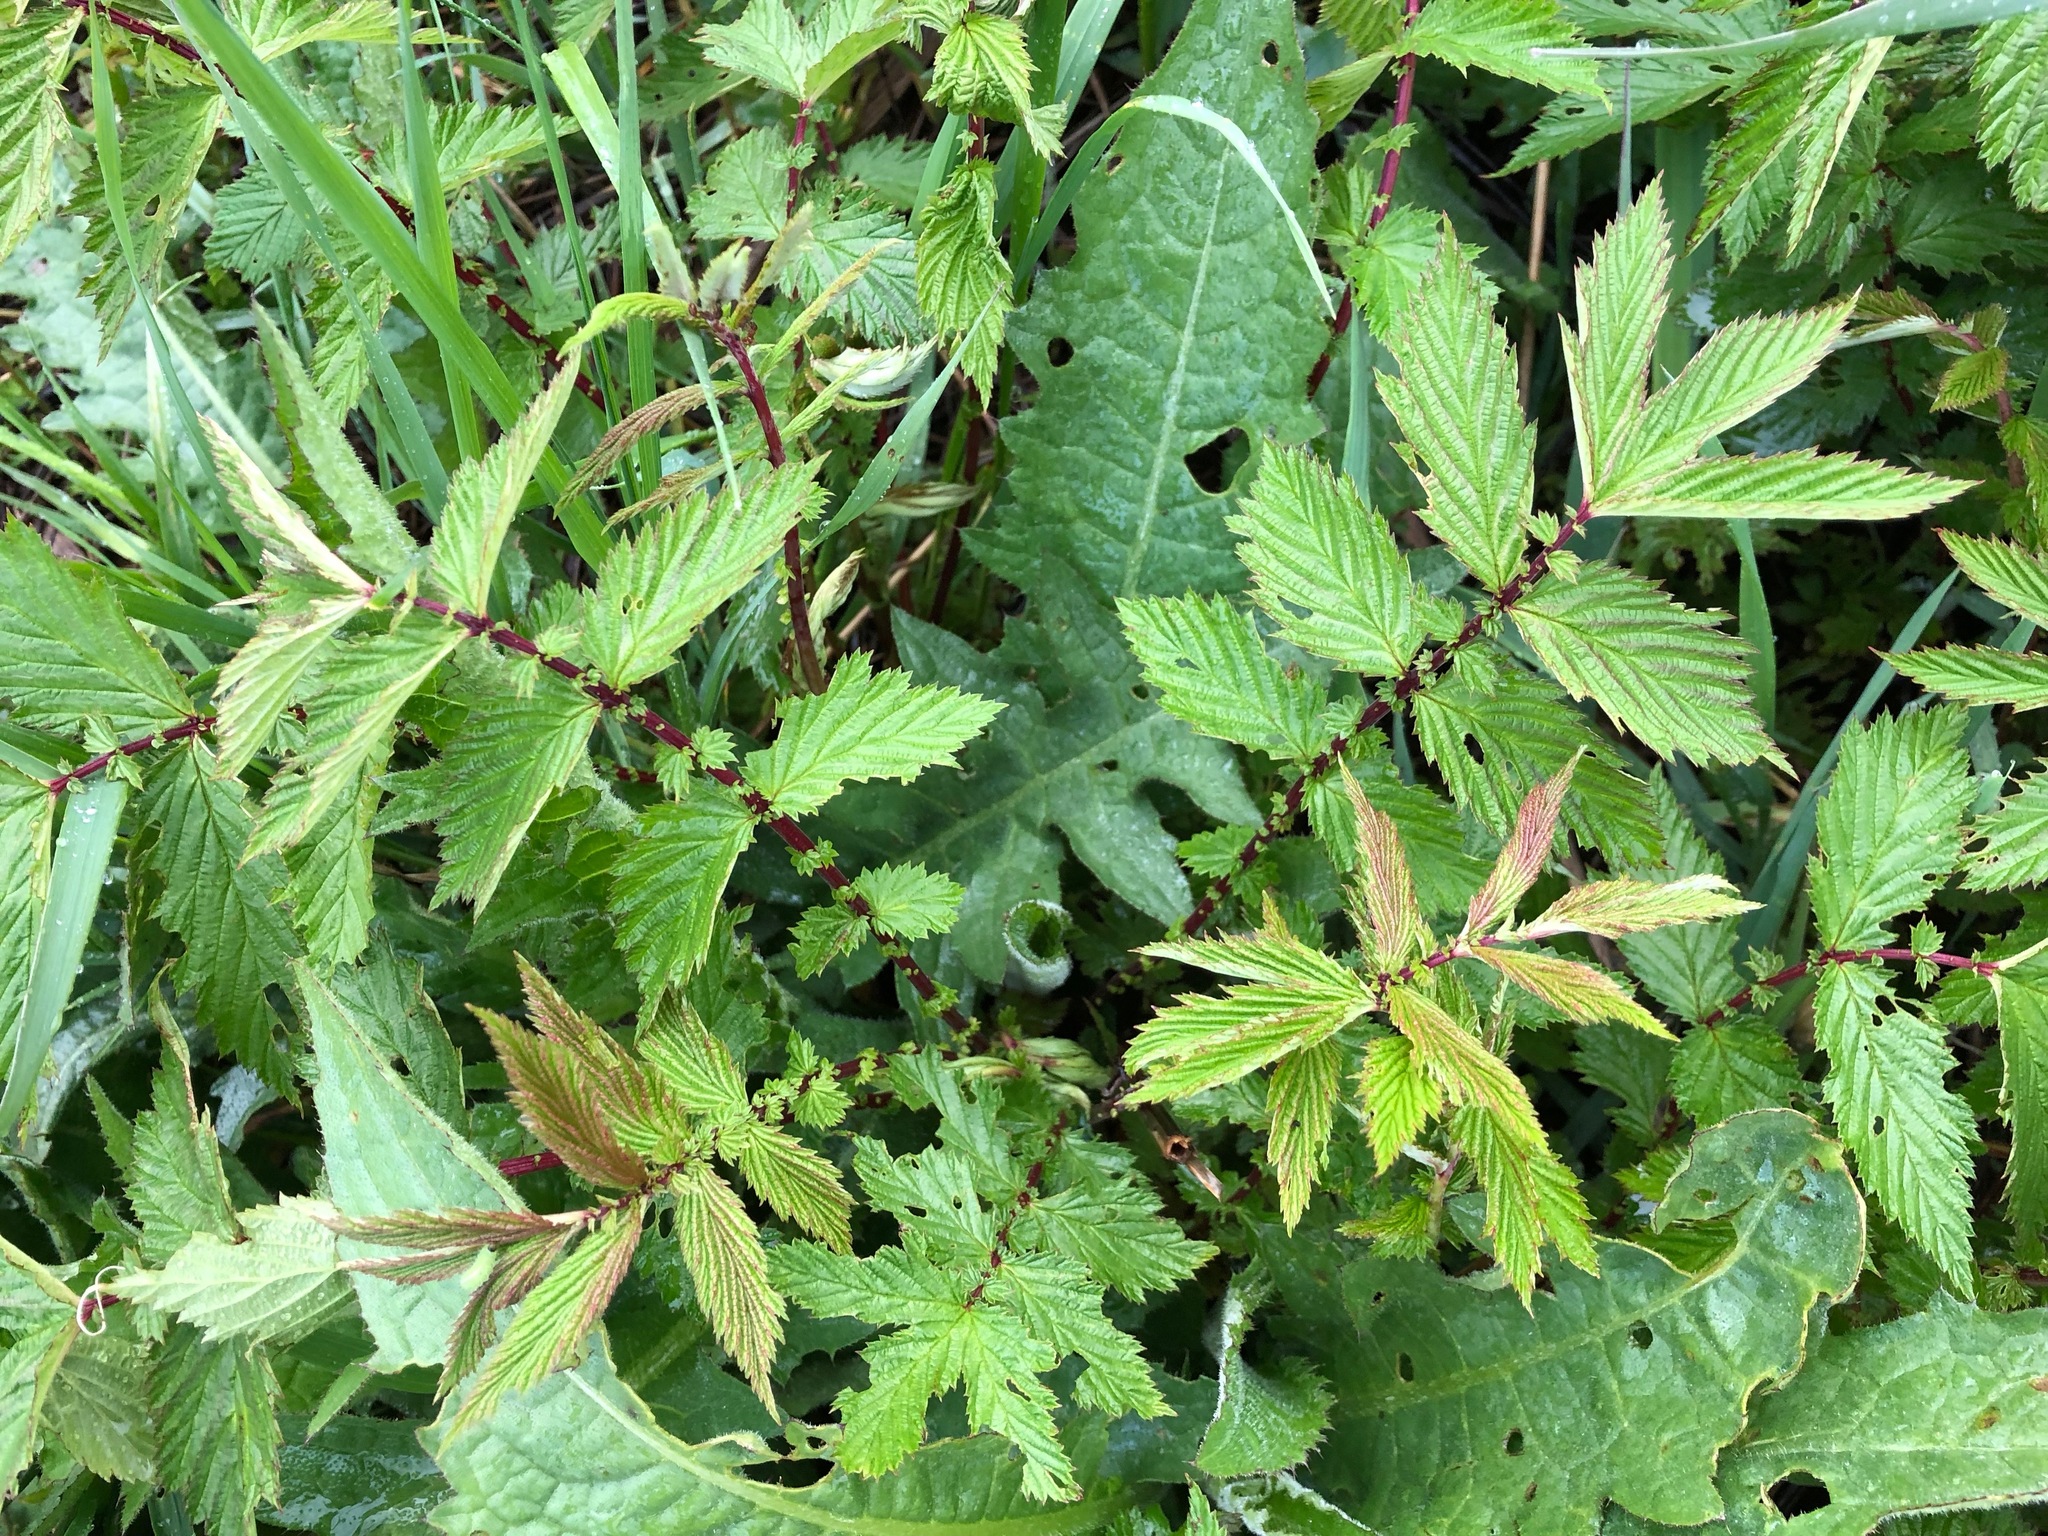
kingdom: Plantae
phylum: Tracheophyta
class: Magnoliopsida
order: Rosales
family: Rosaceae
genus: Filipendula
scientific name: Filipendula ulmaria
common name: Meadowsweet
